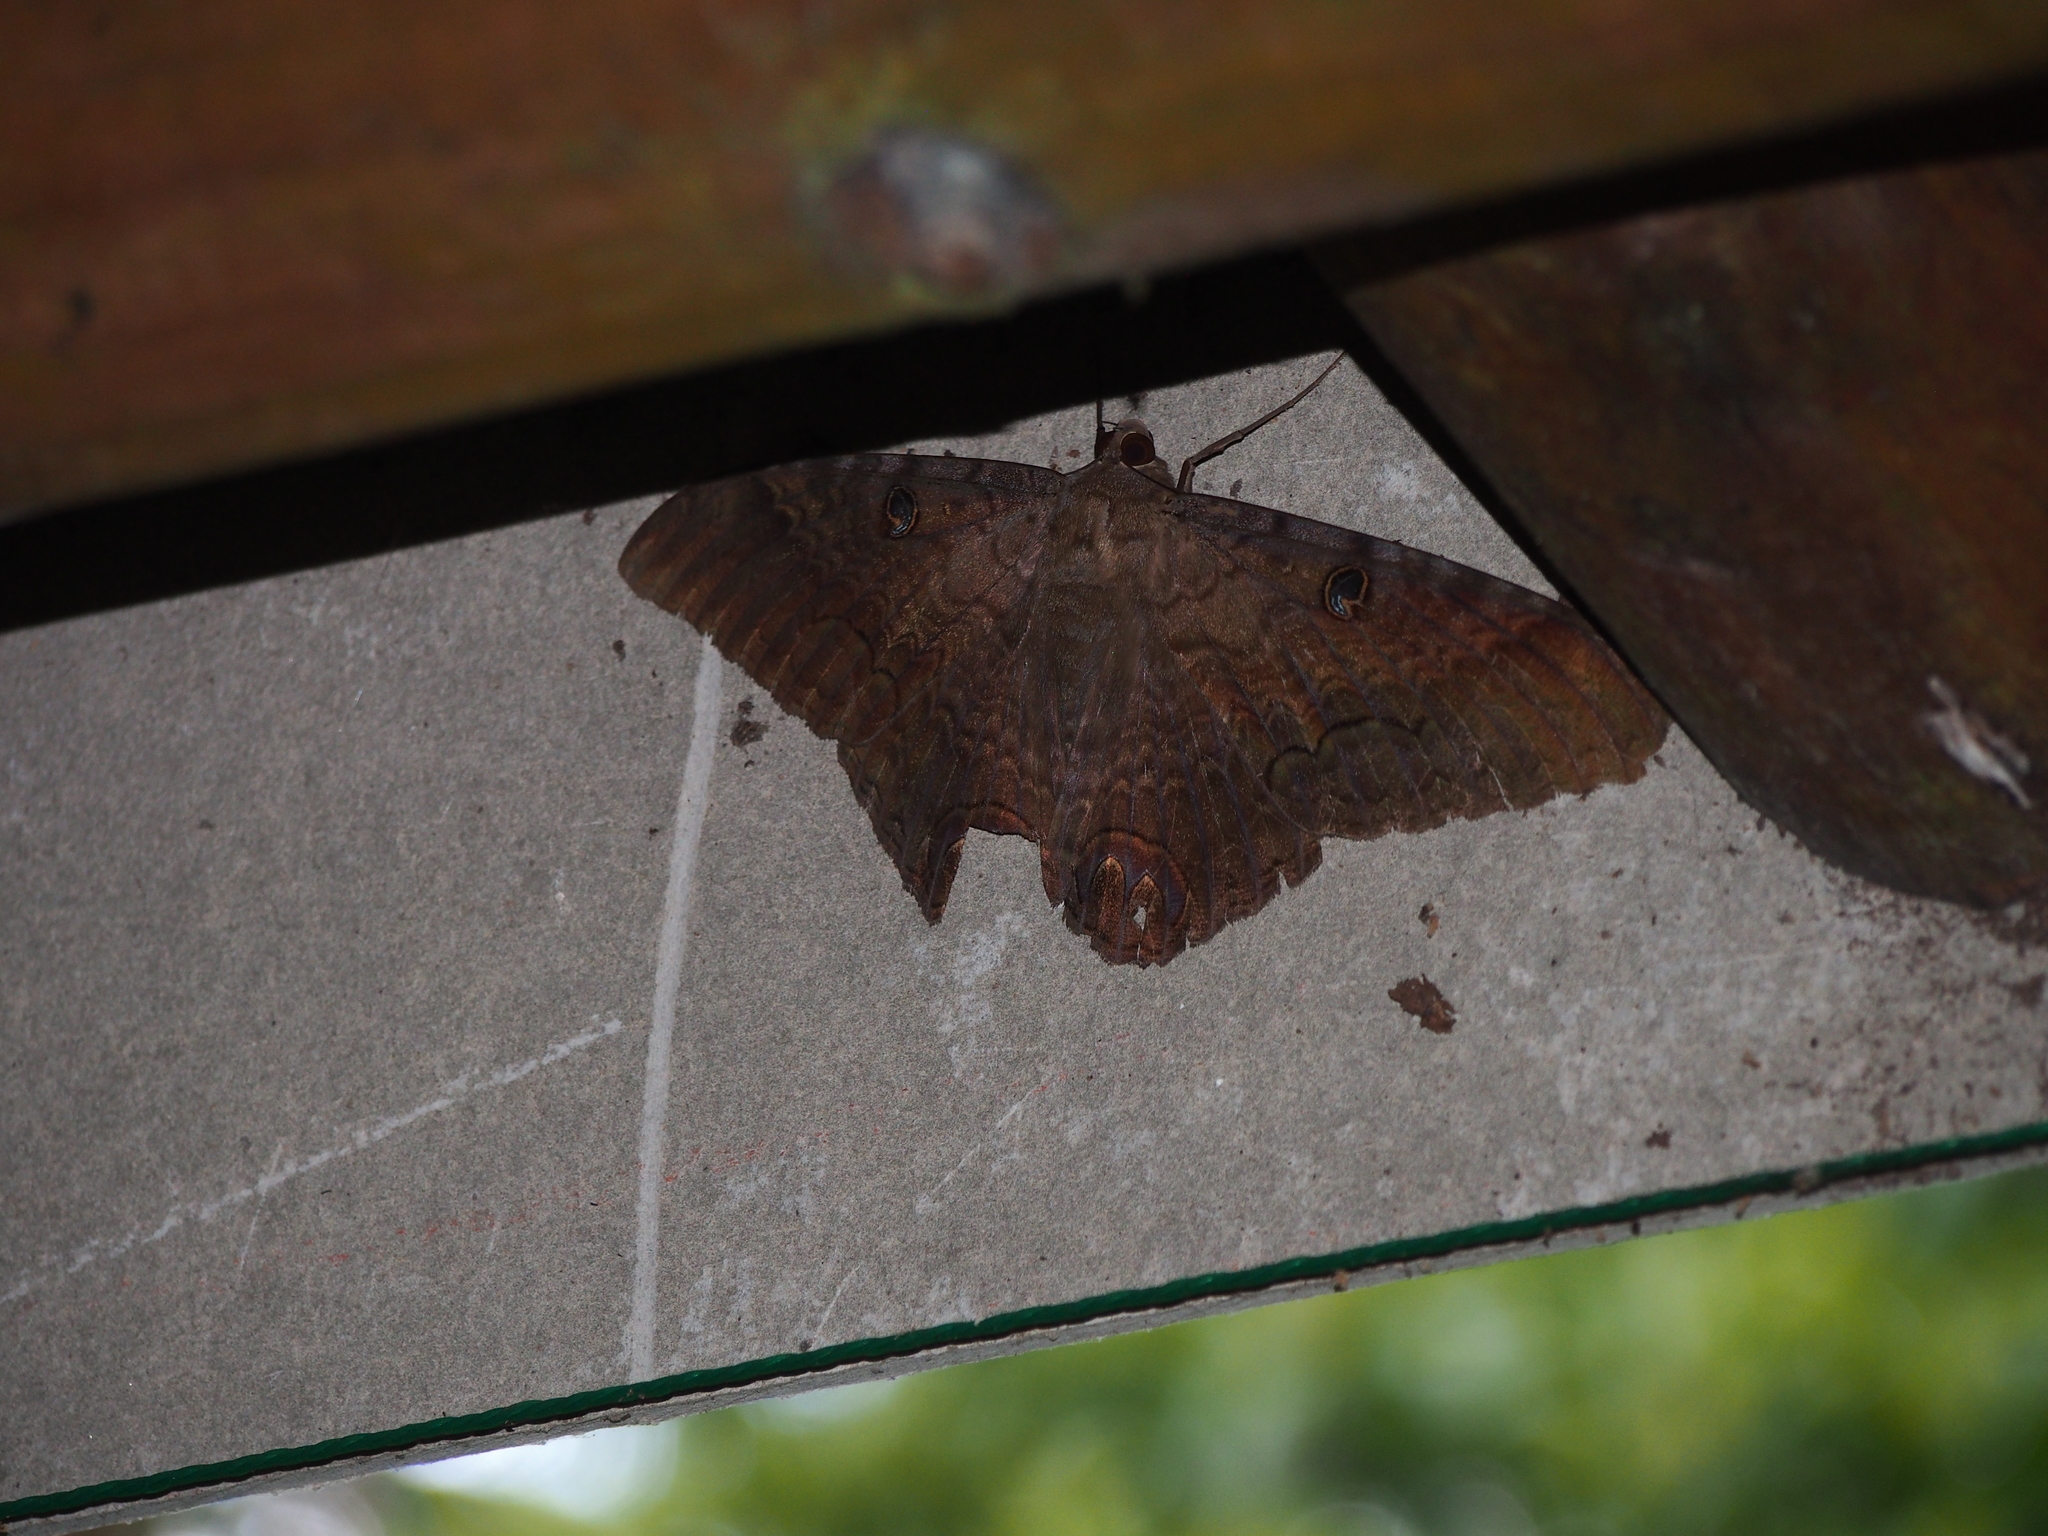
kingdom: Animalia
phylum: Arthropoda
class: Insecta
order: Lepidoptera
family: Erebidae
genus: Ascalapha
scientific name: Ascalapha odorata
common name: Black witch
